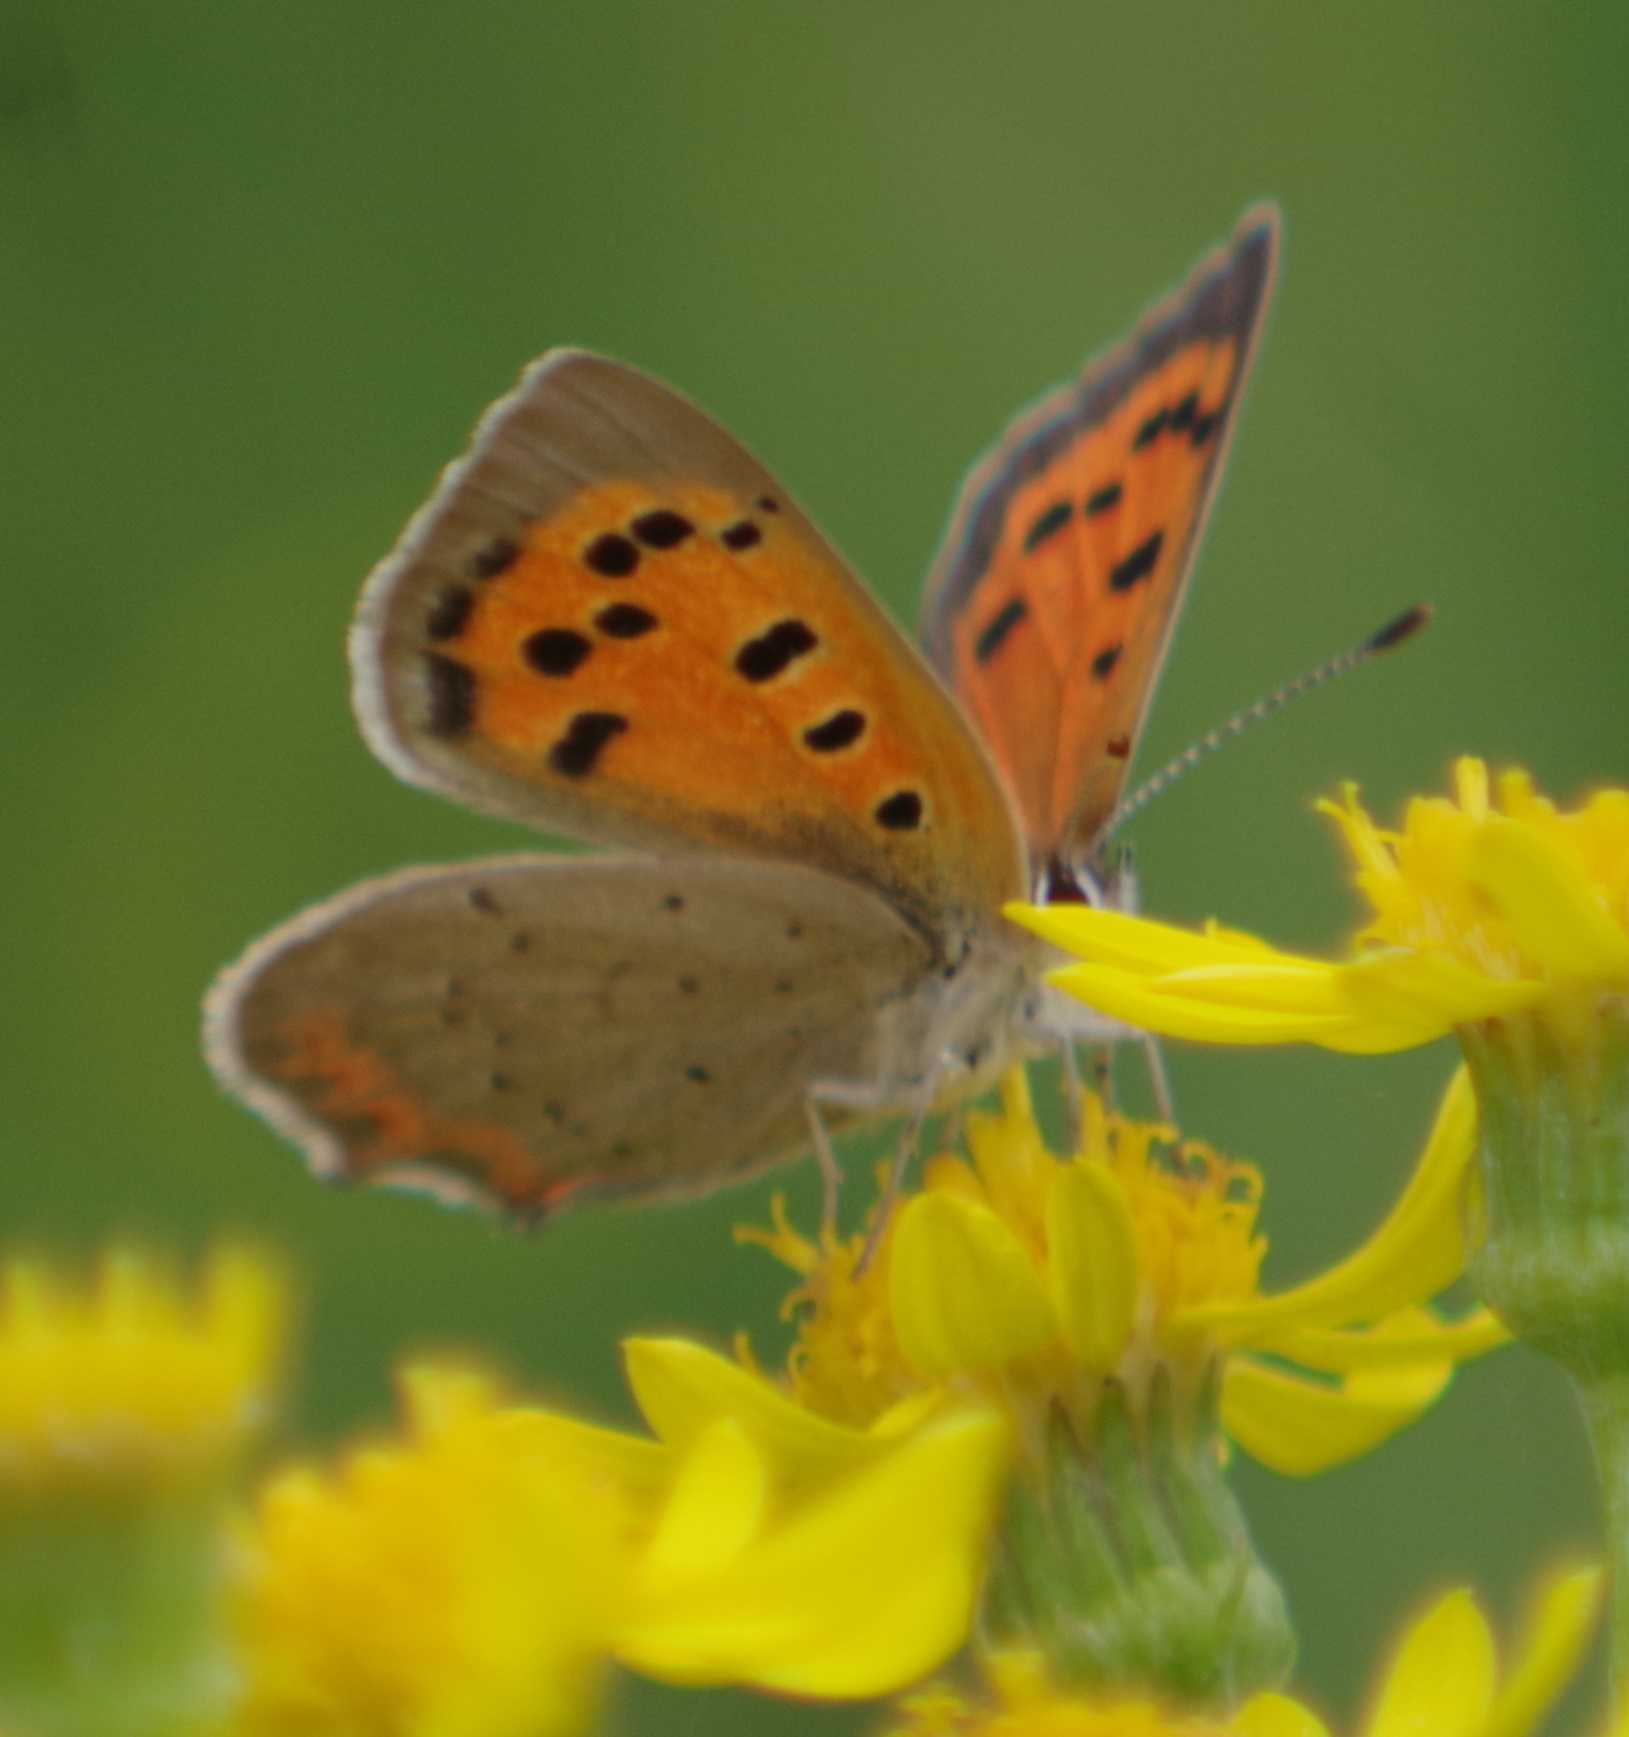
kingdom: Animalia
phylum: Arthropoda
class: Insecta
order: Lepidoptera
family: Lycaenidae
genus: Lycaena
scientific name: Lycaena phlaeas
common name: Small copper
